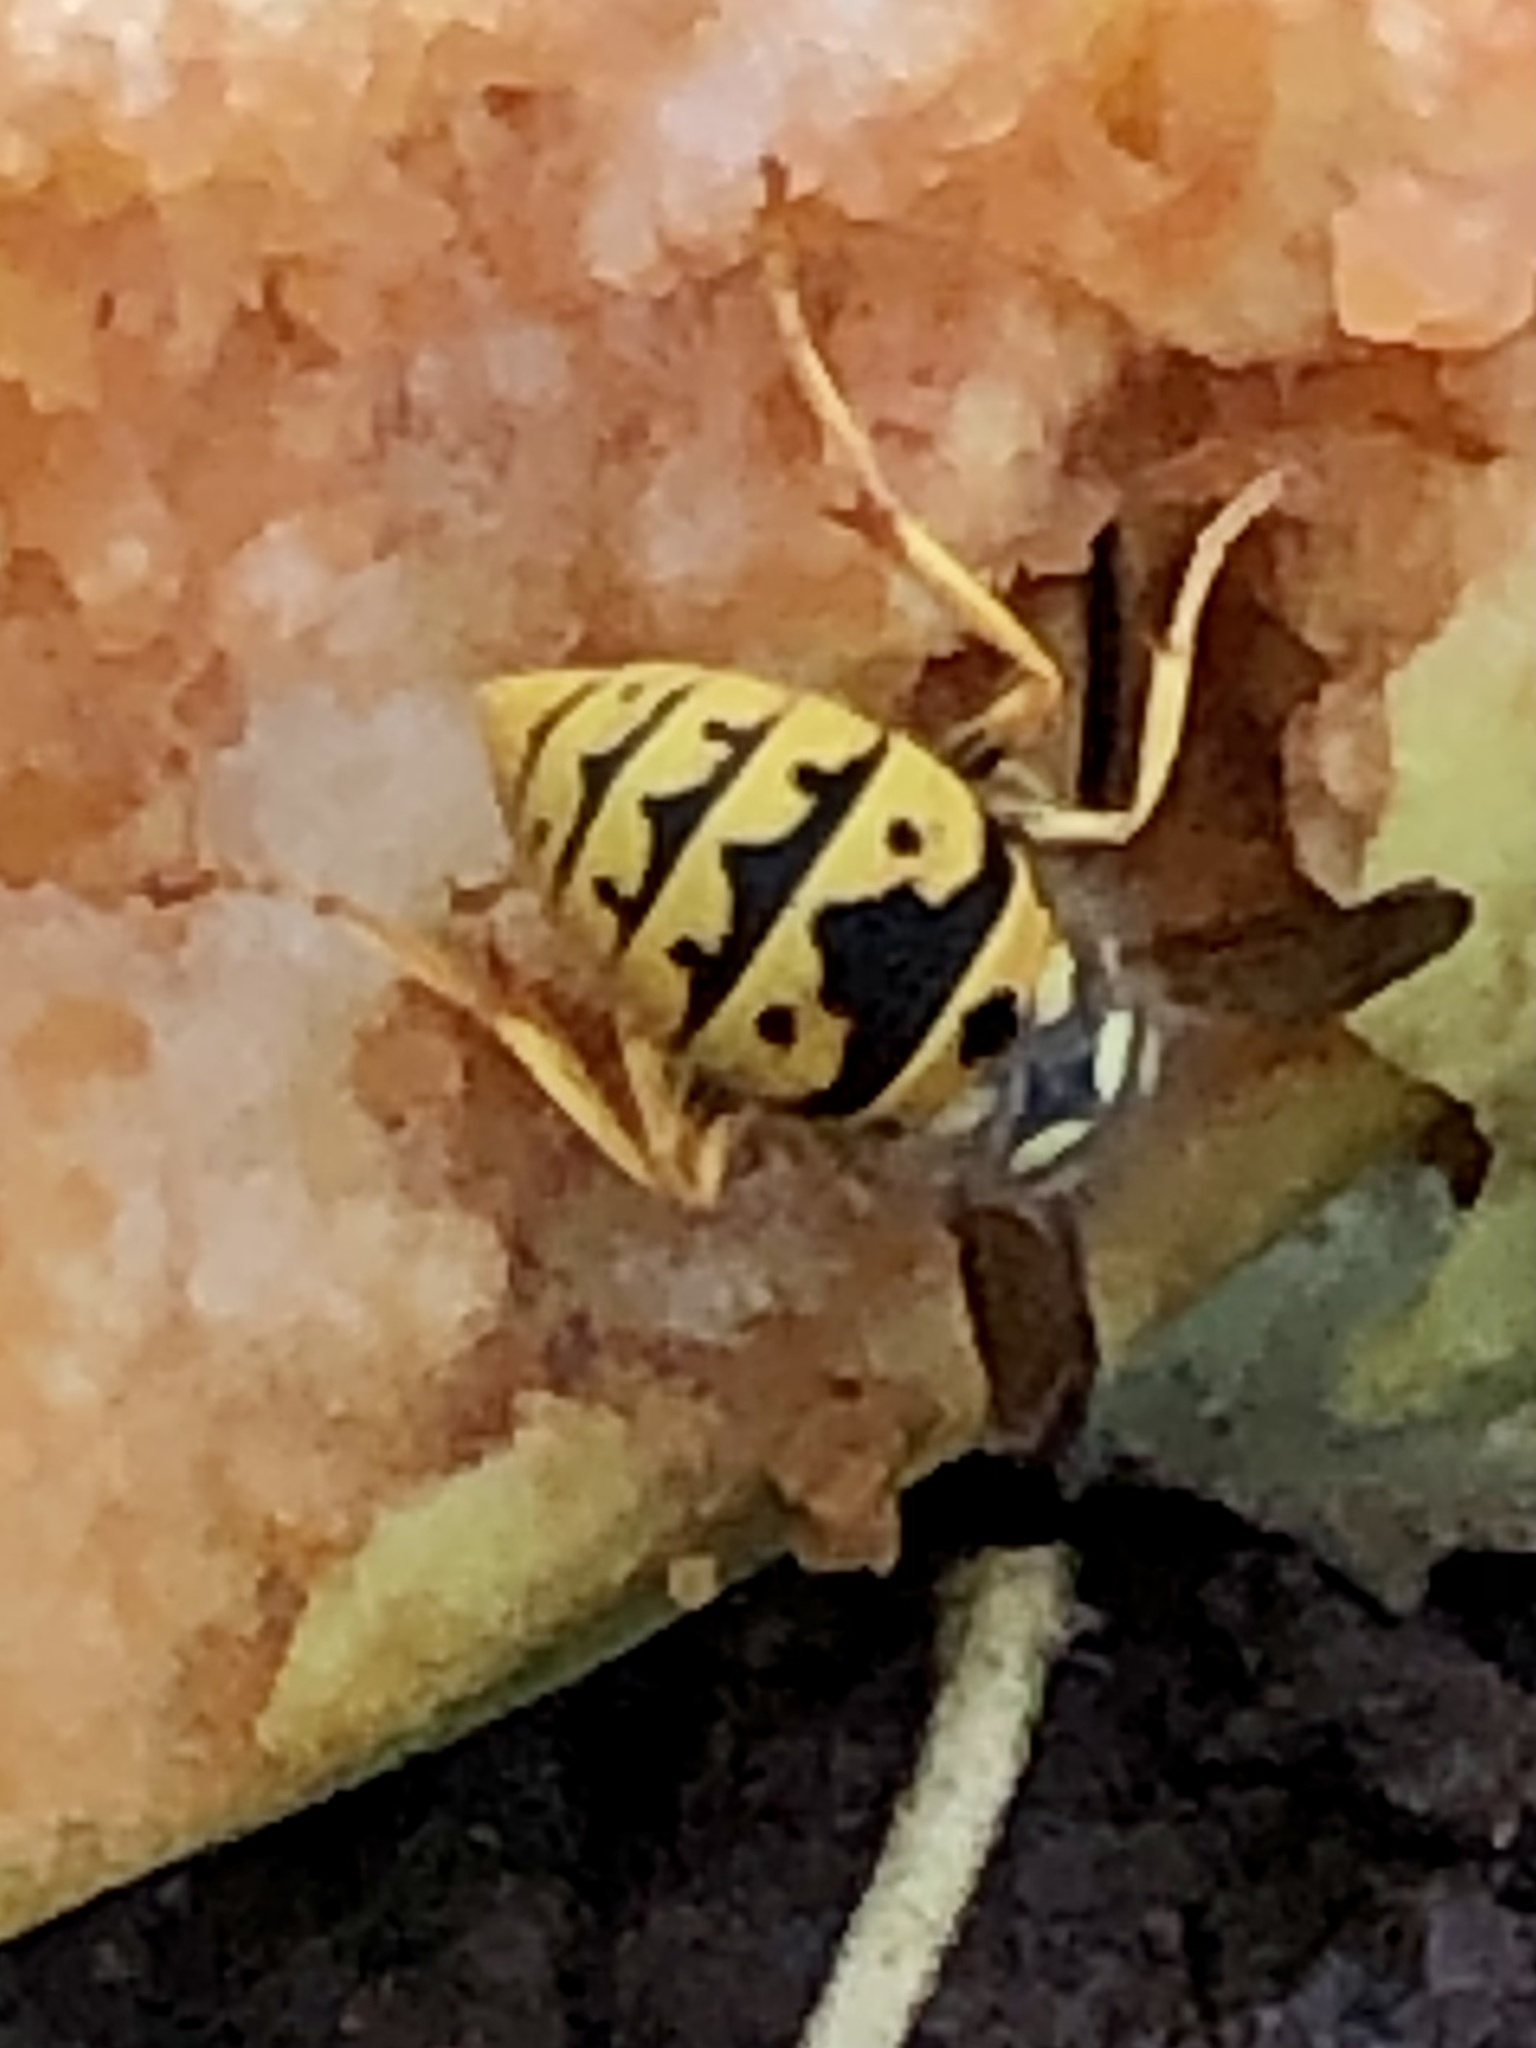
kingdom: Animalia
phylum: Arthropoda
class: Insecta
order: Hymenoptera
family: Vespidae
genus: Vespula
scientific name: Vespula germanica
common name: German wasp
